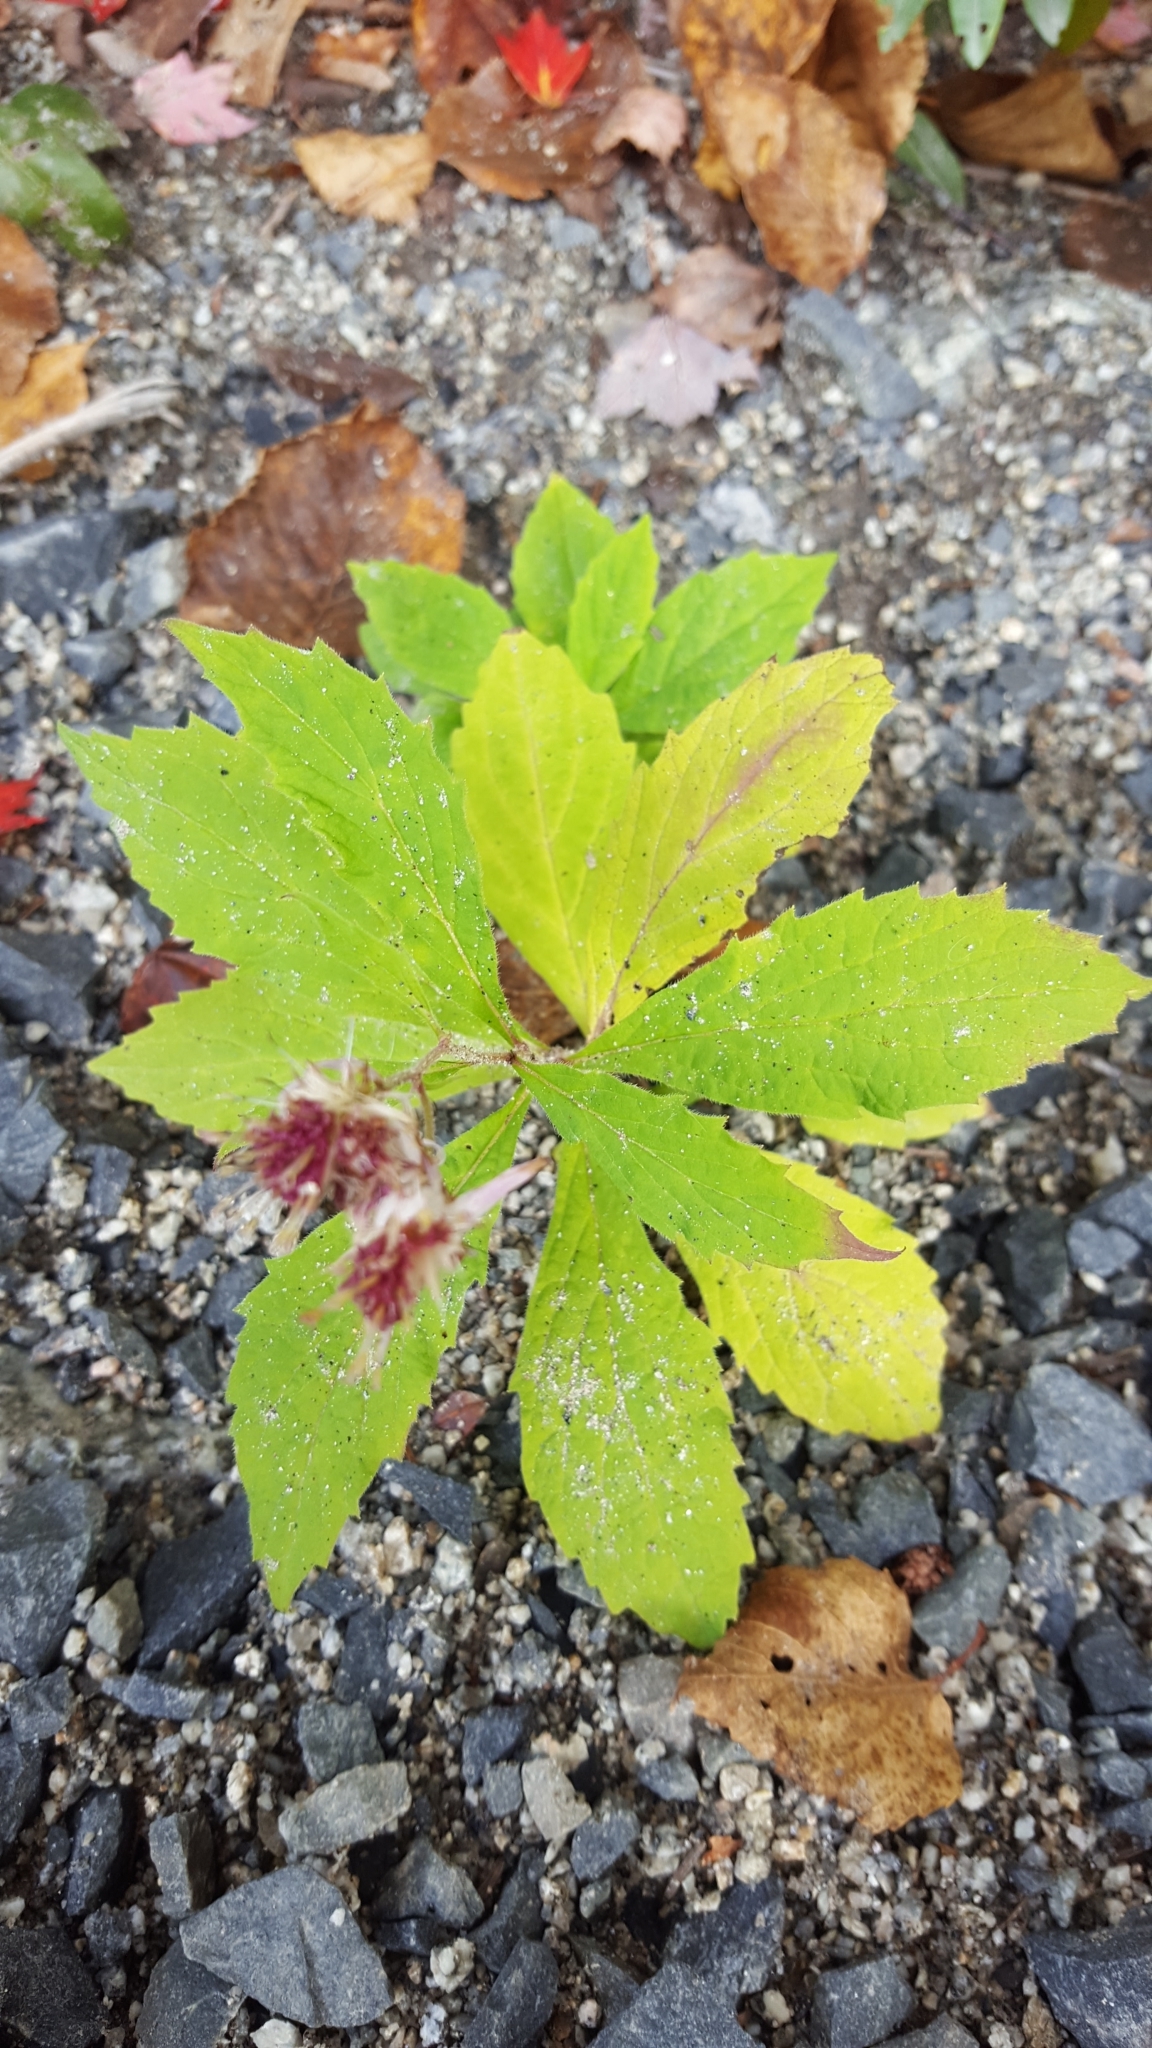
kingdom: Plantae
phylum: Tracheophyta
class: Magnoliopsida
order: Asterales
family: Asteraceae
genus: Oclemena
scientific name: Oclemena acuminata
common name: Mountain aster
